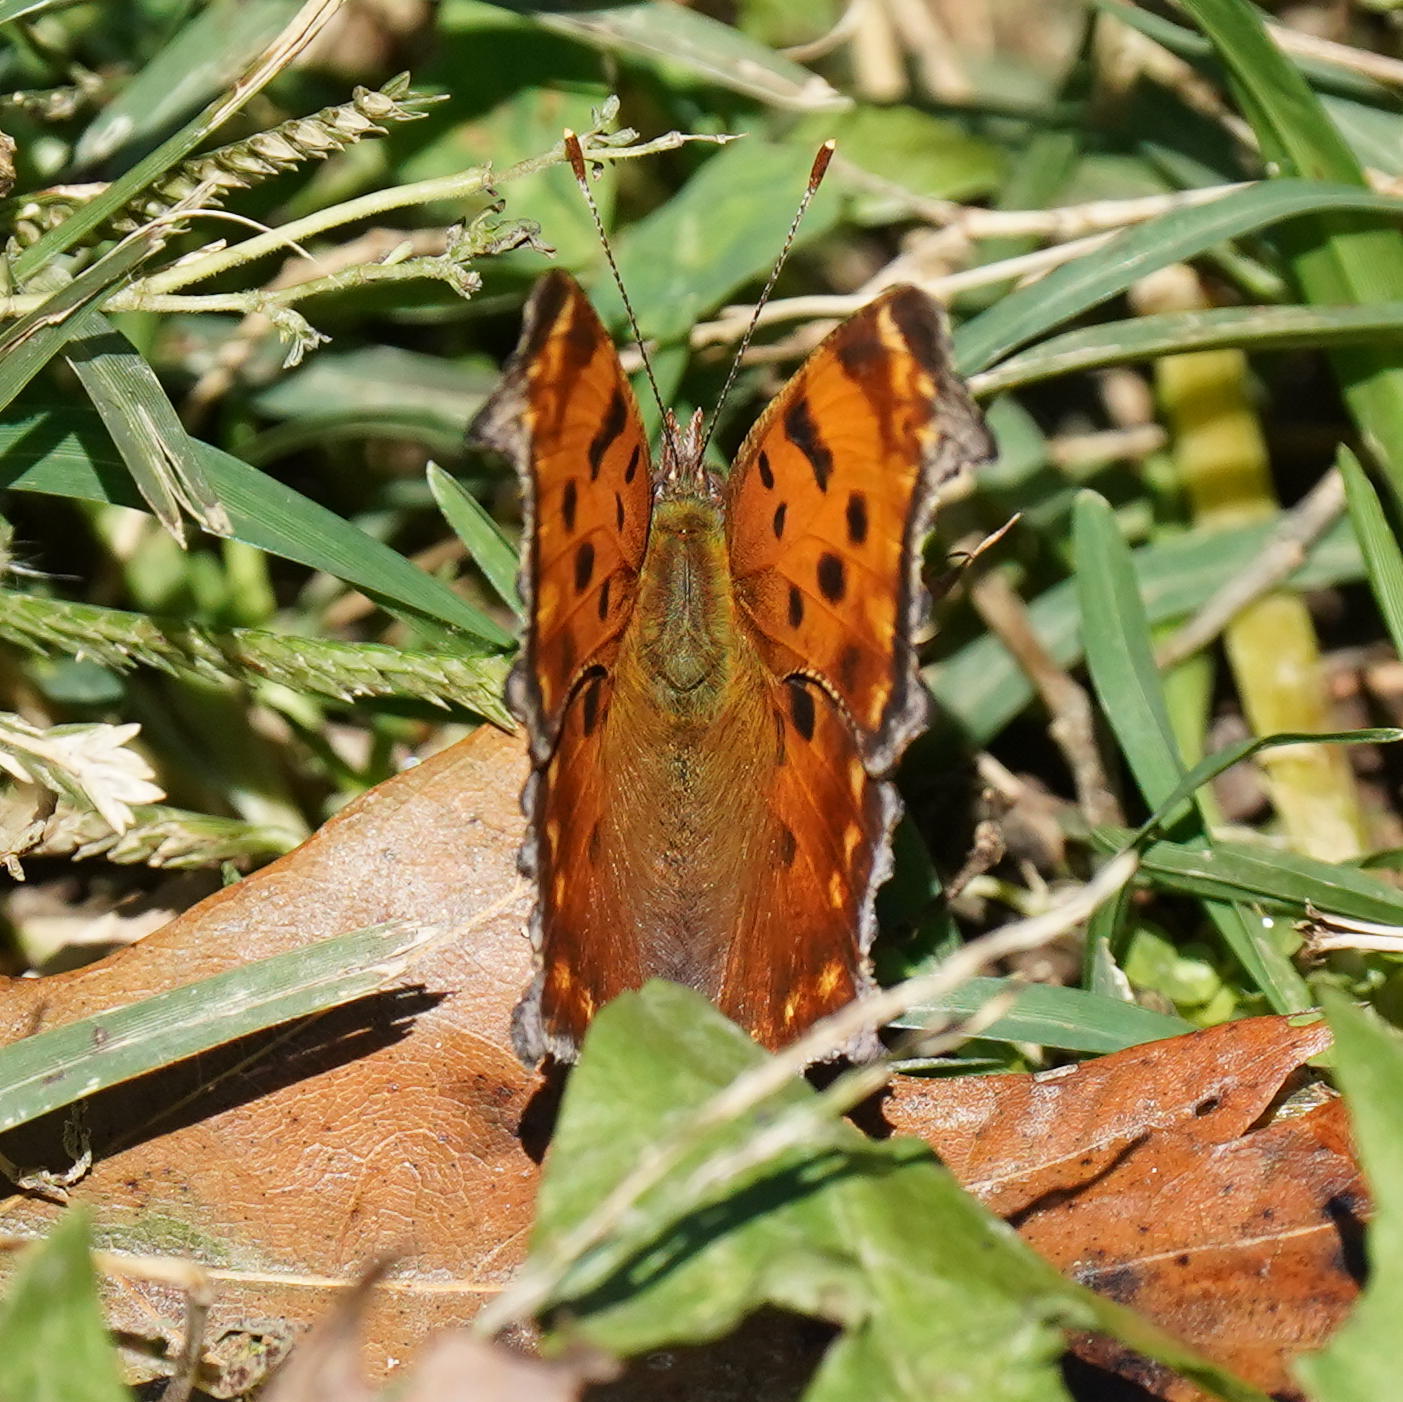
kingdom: Animalia
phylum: Arthropoda
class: Insecta
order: Lepidoptera
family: Nymphalidae
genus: Polygonia
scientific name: Polygonia comma
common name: Eastern comma
